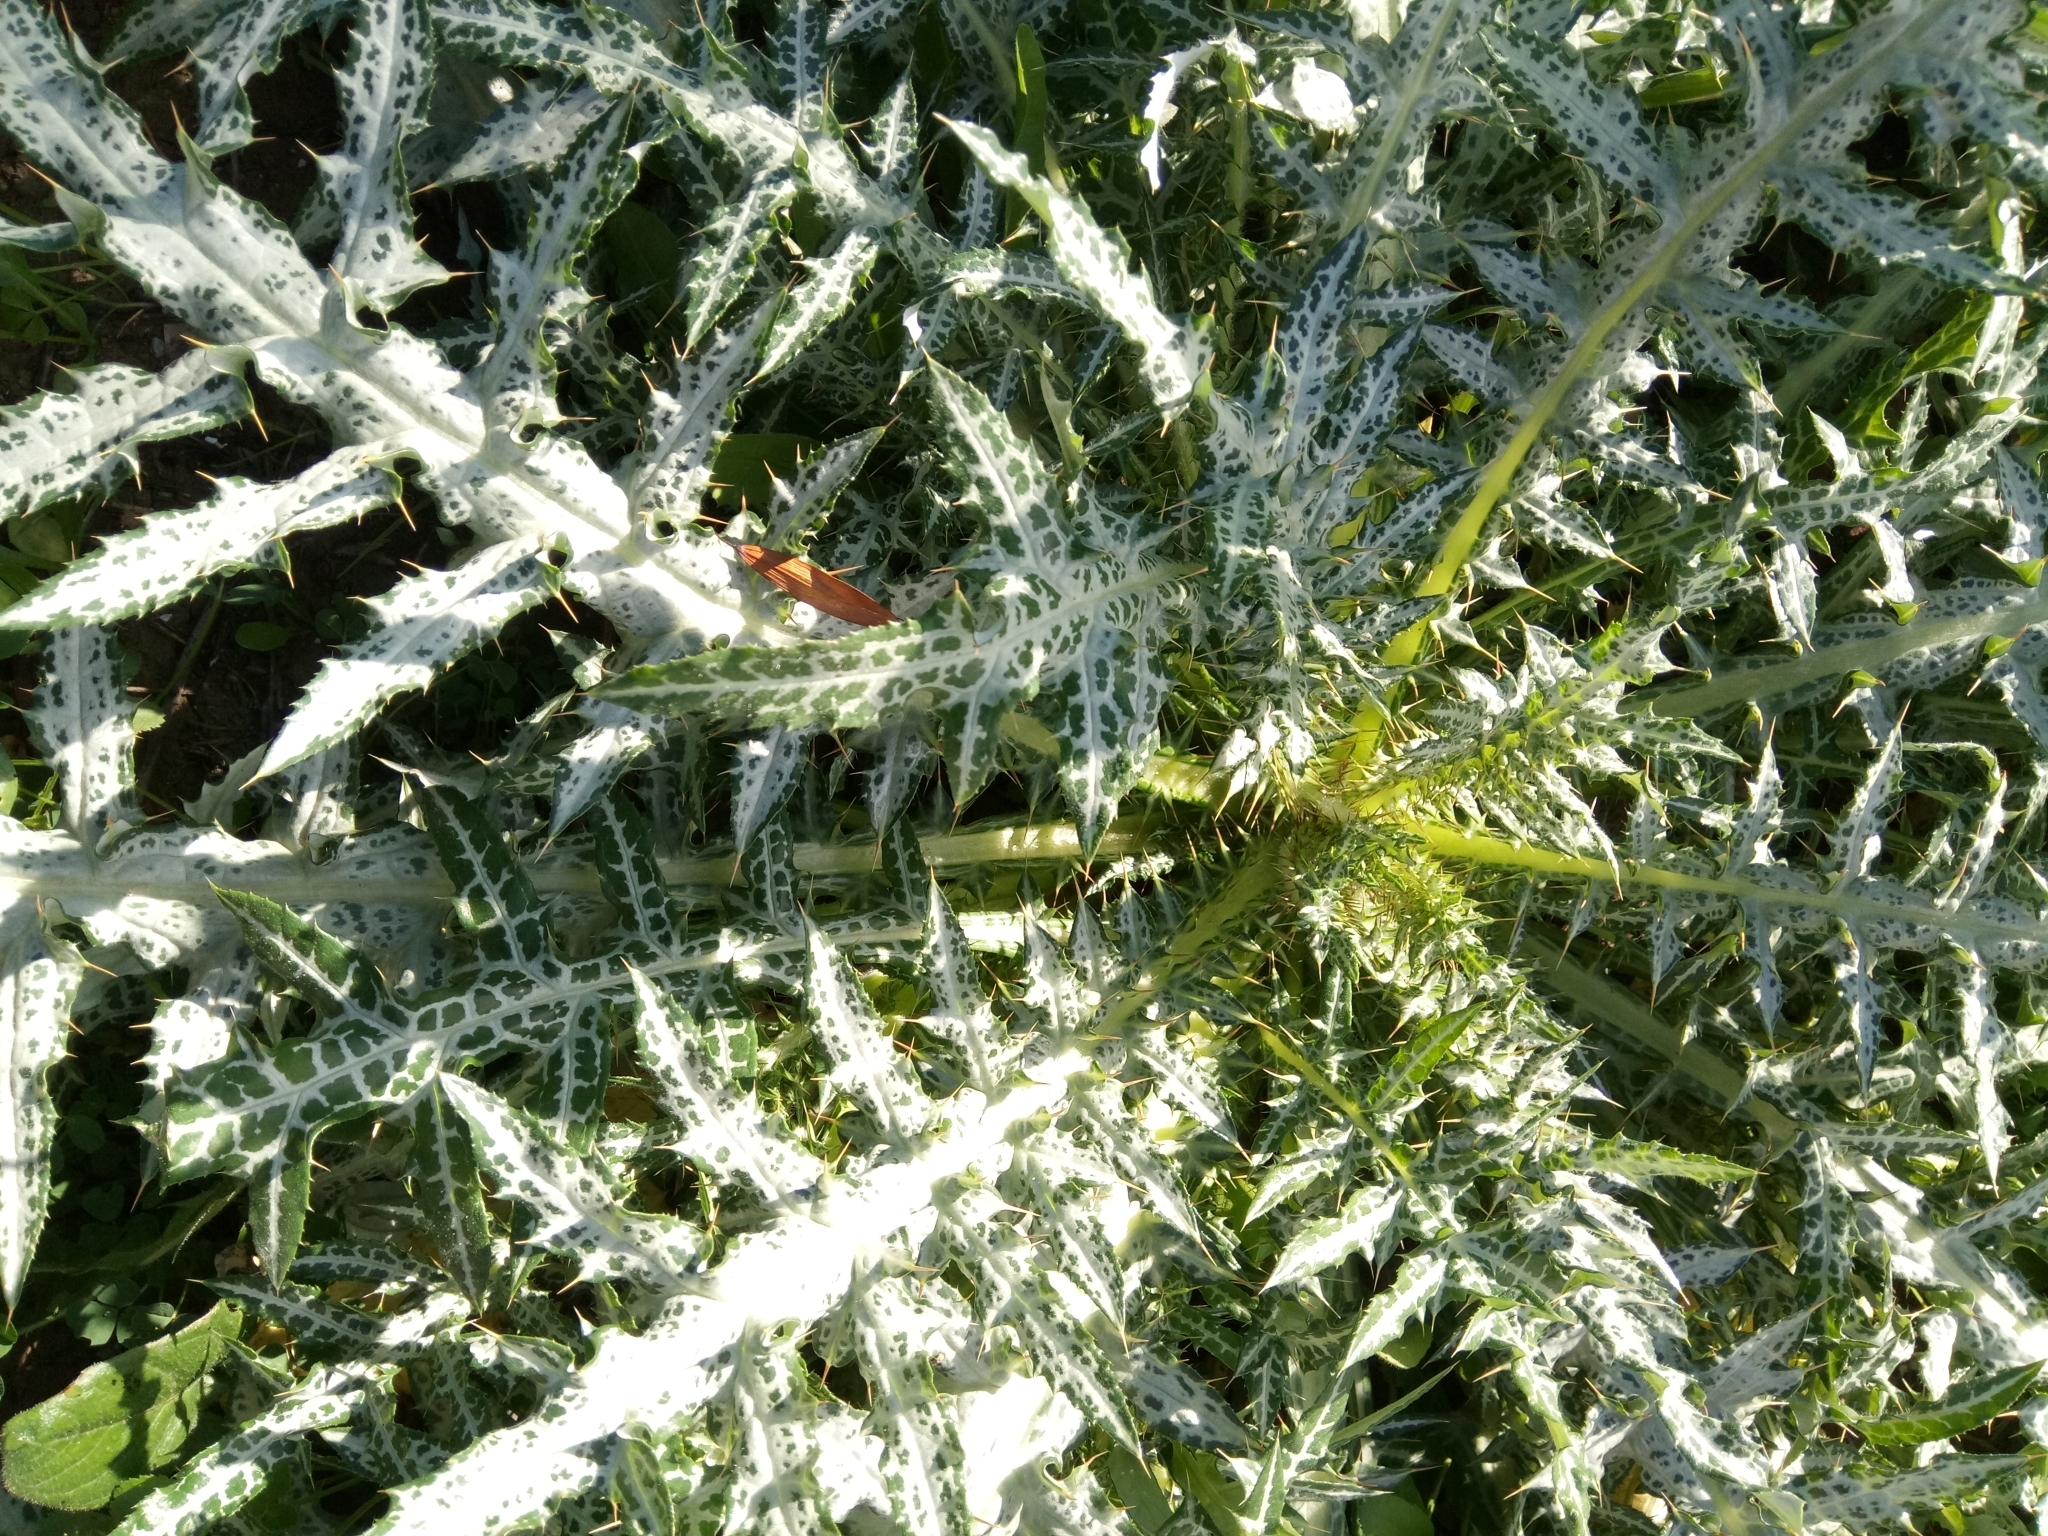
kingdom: Plantae
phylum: Tracheophyta
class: Magnoliopsida
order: Asterales
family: Asteraceae
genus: Galactites
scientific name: Galactites tomentosa
